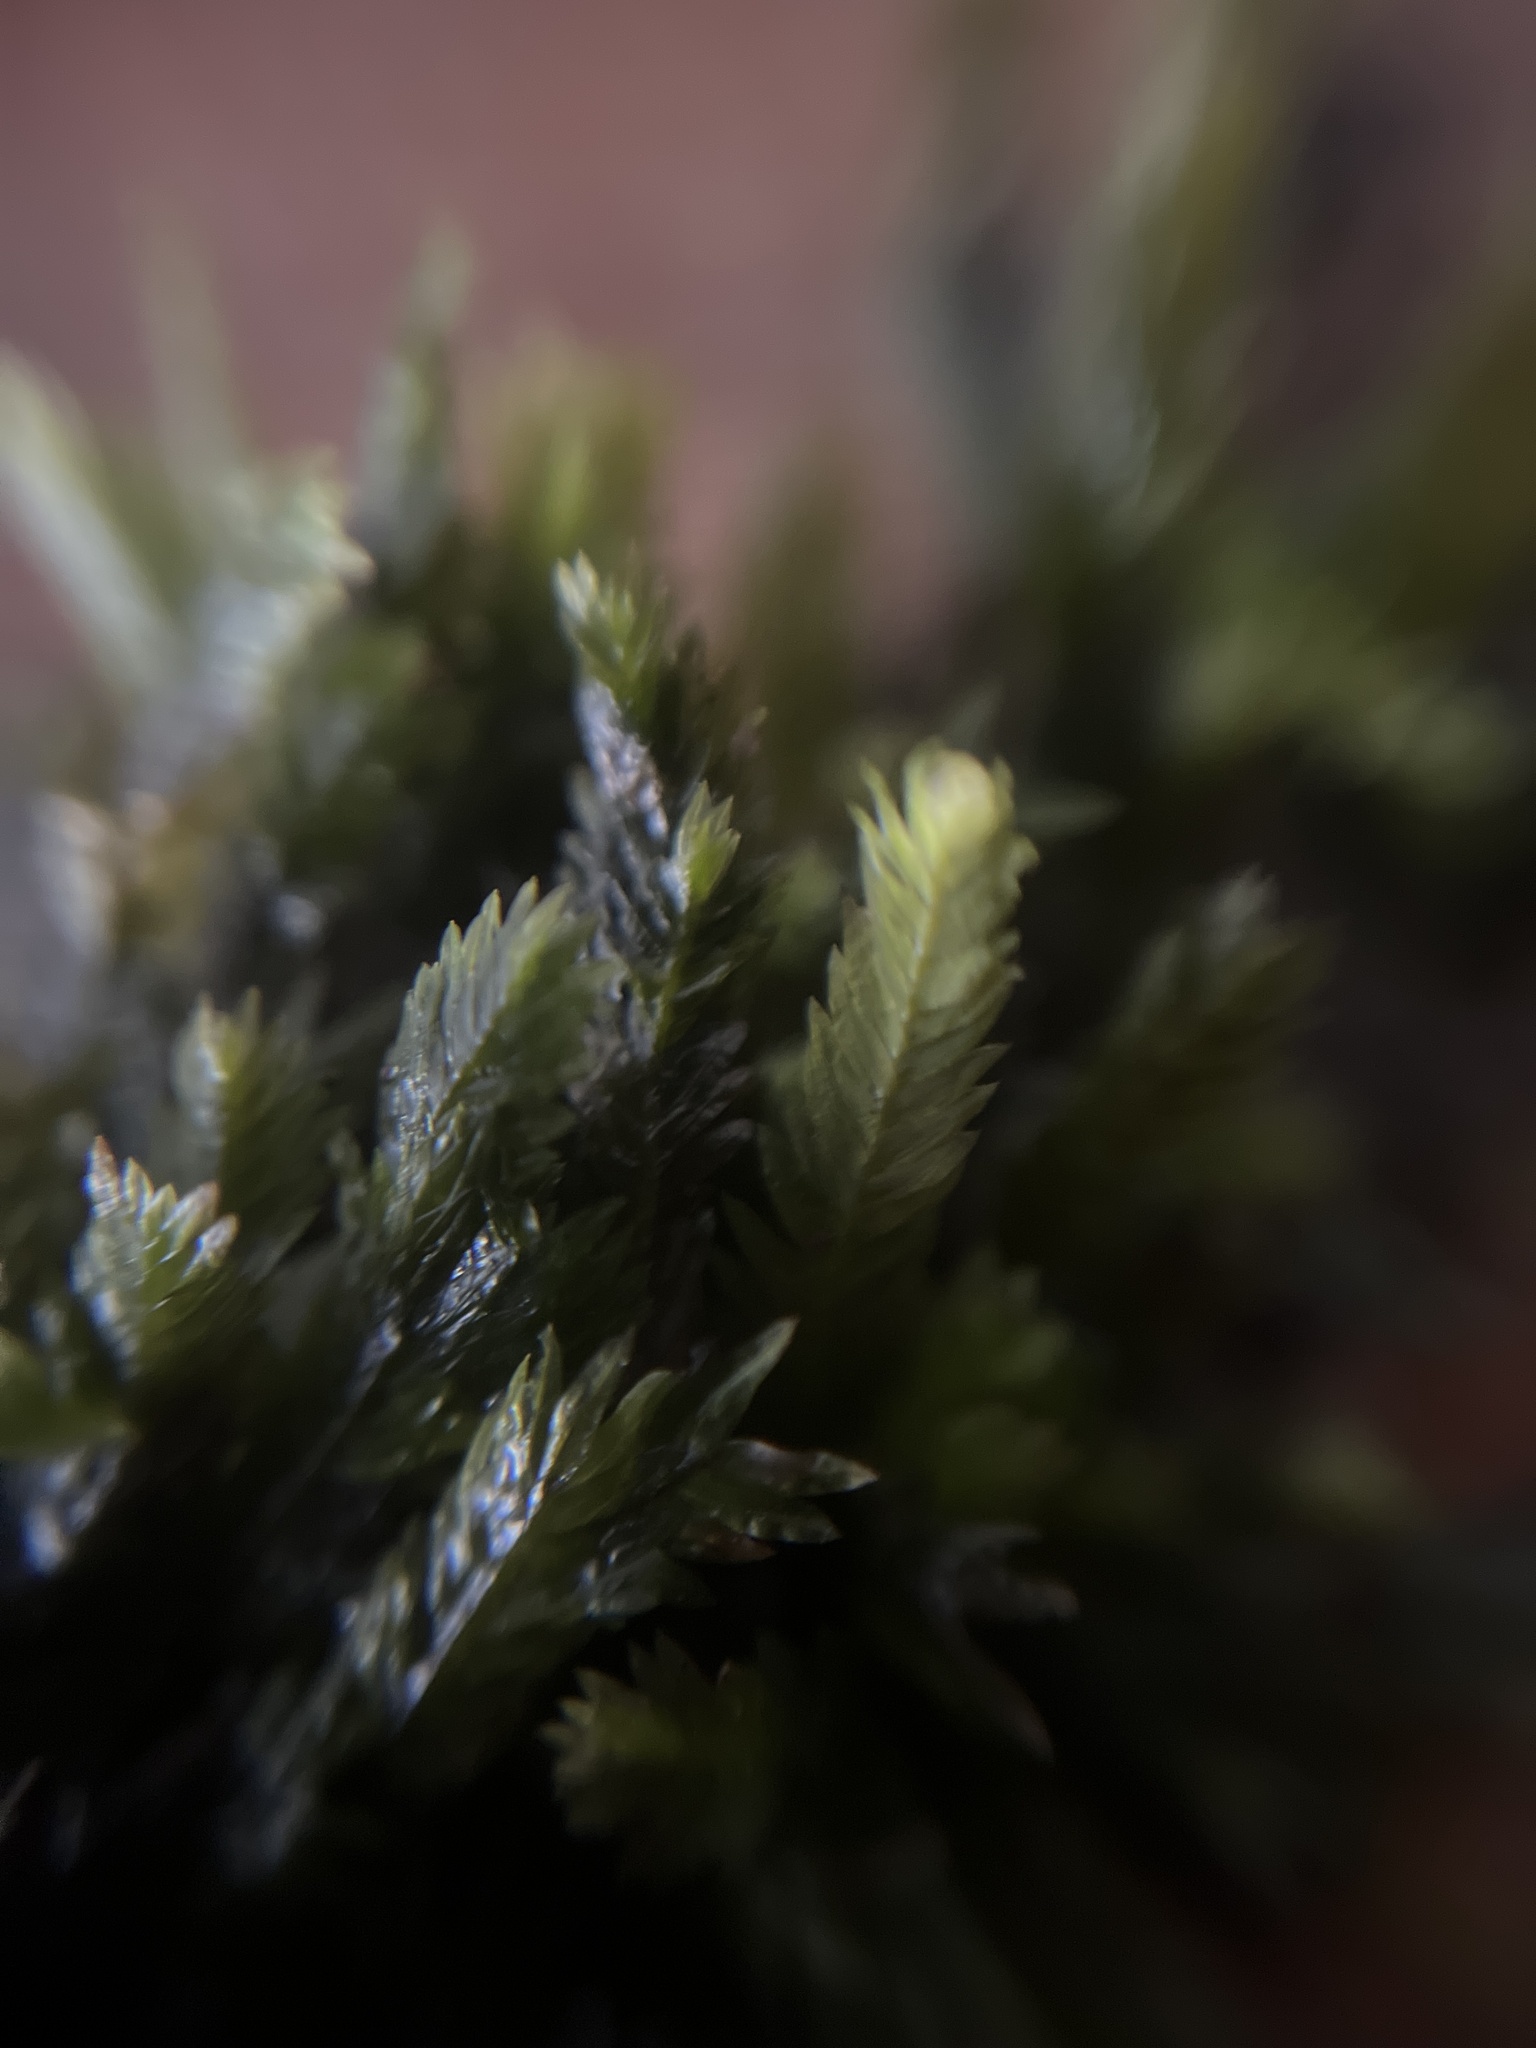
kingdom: Plantae
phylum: Bryophyta
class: Bryopsida
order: Dicranales
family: Fissidentaceae
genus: Fissidens
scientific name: Fissidens taxifolius
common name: Yew-leaved pocket moss
